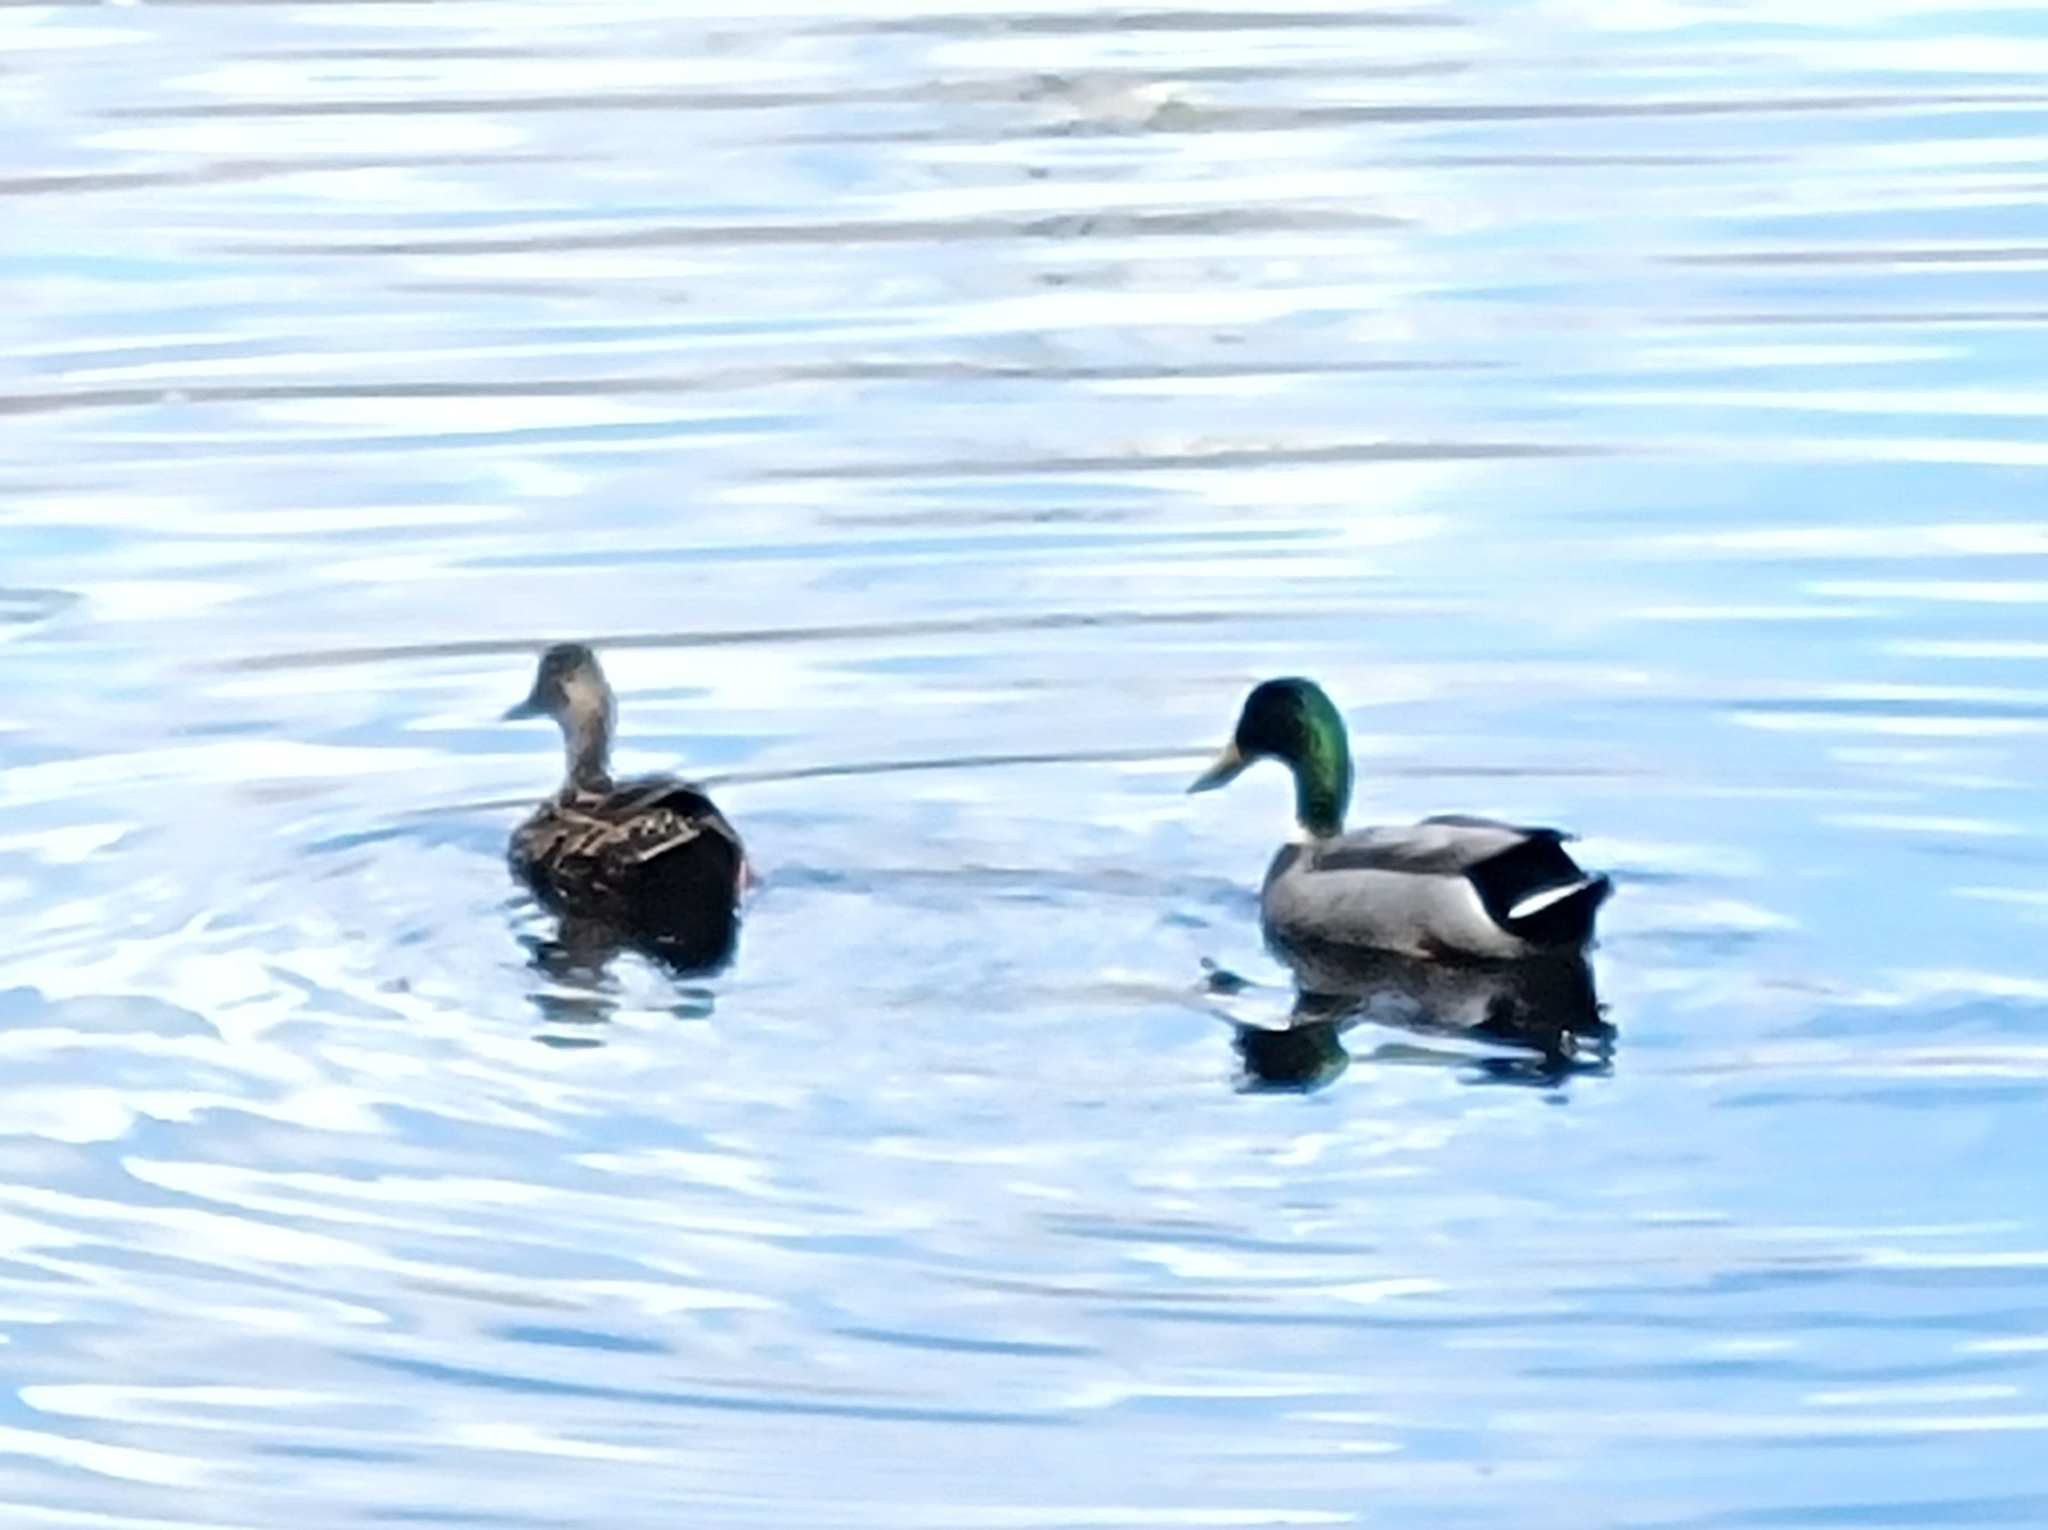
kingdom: Animalia
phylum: Chordata
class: Aves
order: Anseriformes
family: Anatidae
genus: Anas
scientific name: Anas platyrhynchos
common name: Mallard
